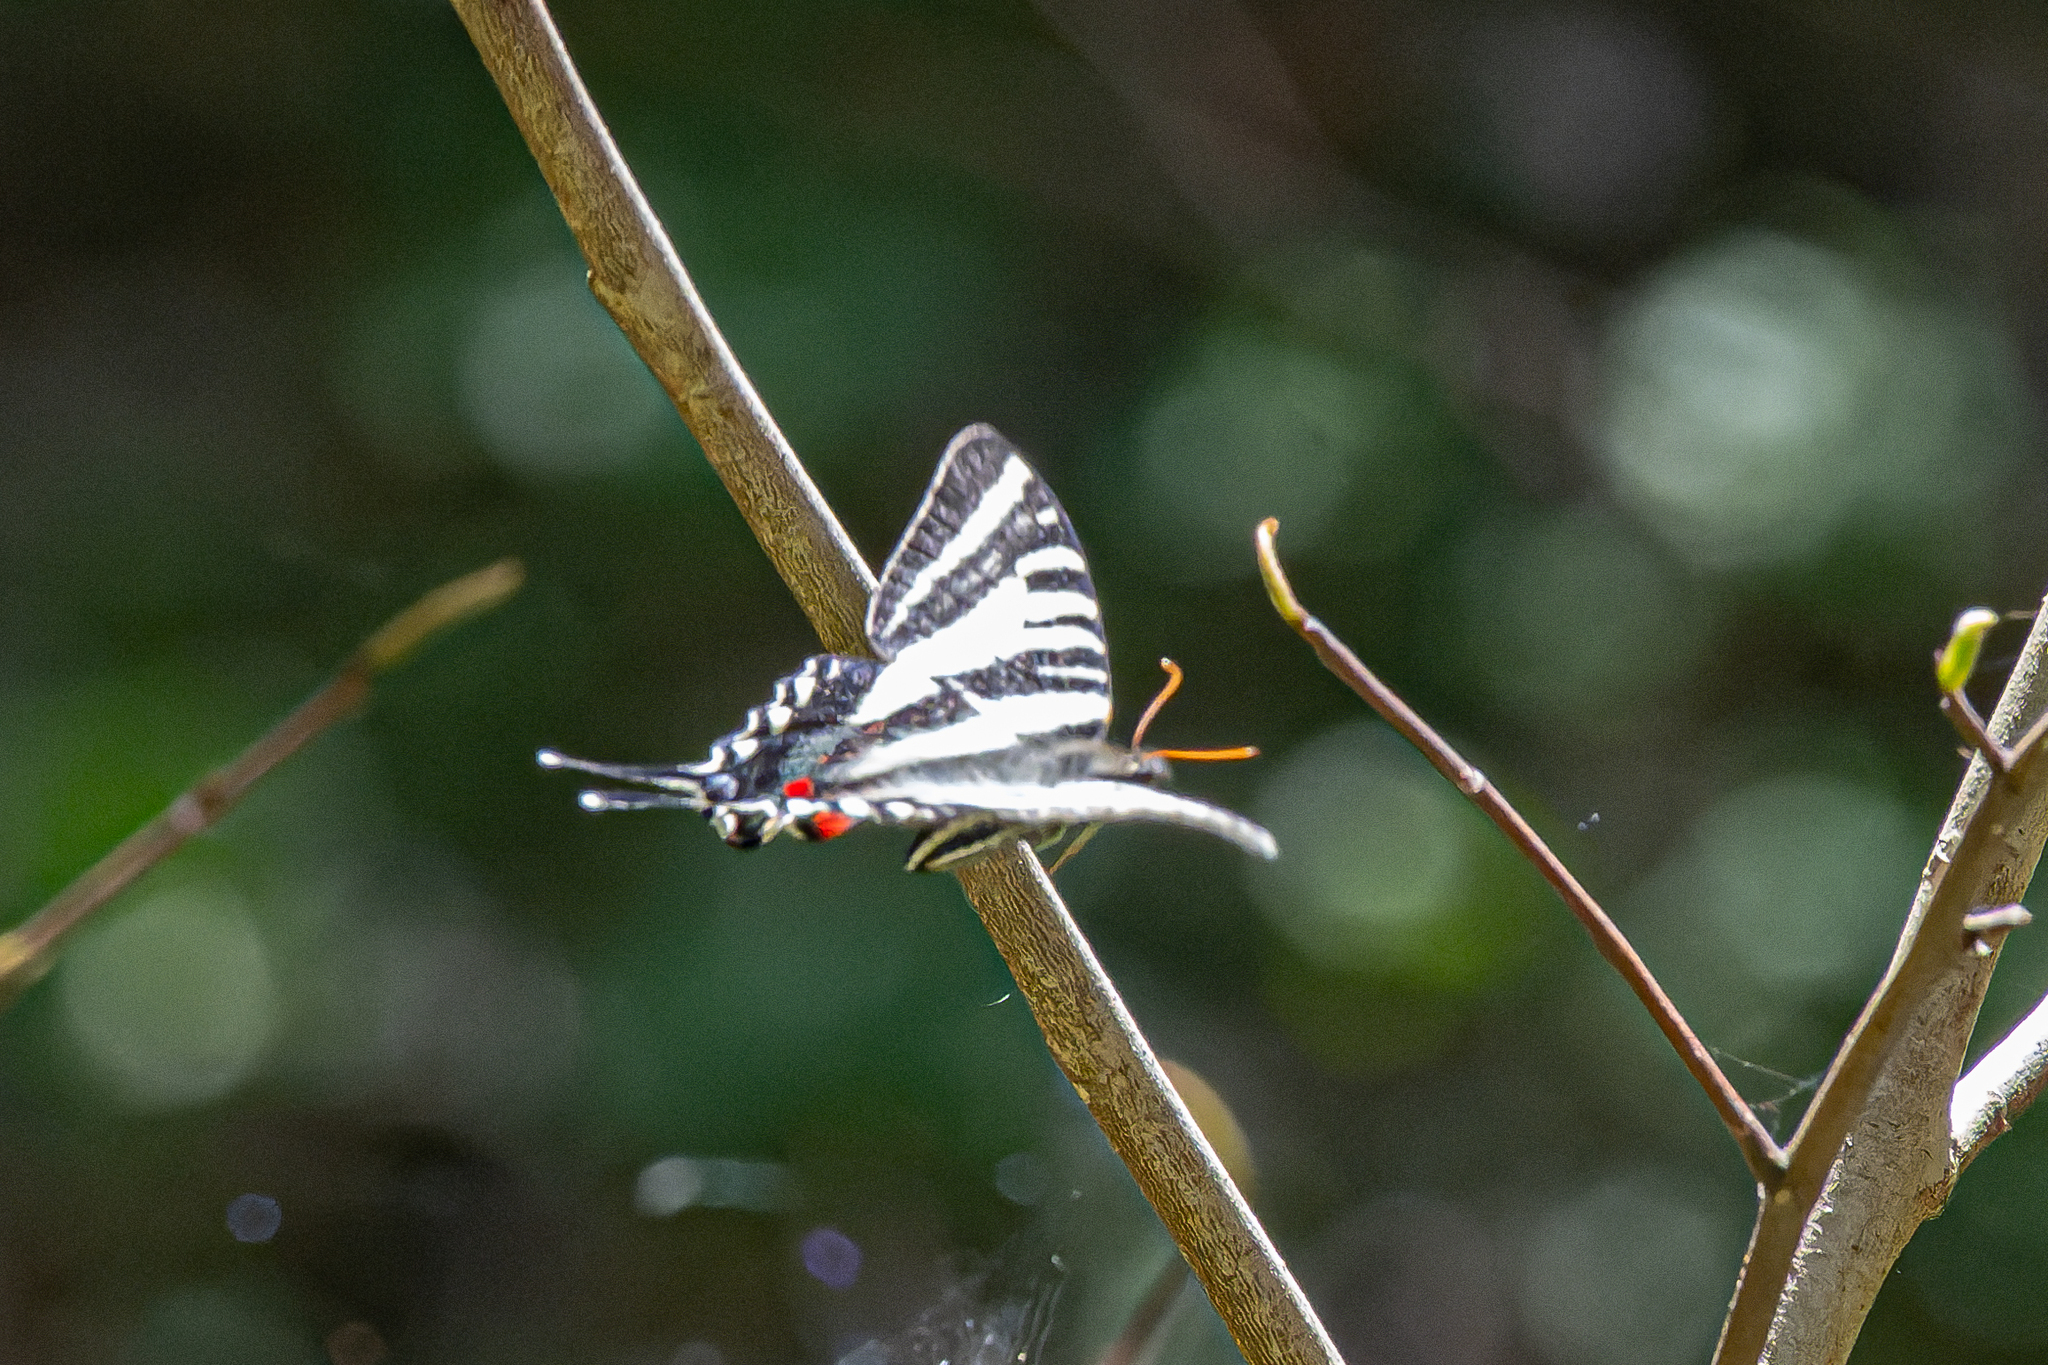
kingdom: Animalia
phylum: Arthropoda
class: Insecta
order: Lepidoptera
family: Papilionidae
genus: Protographium
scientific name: Protographium marcellus
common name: Zebra swallowtail
